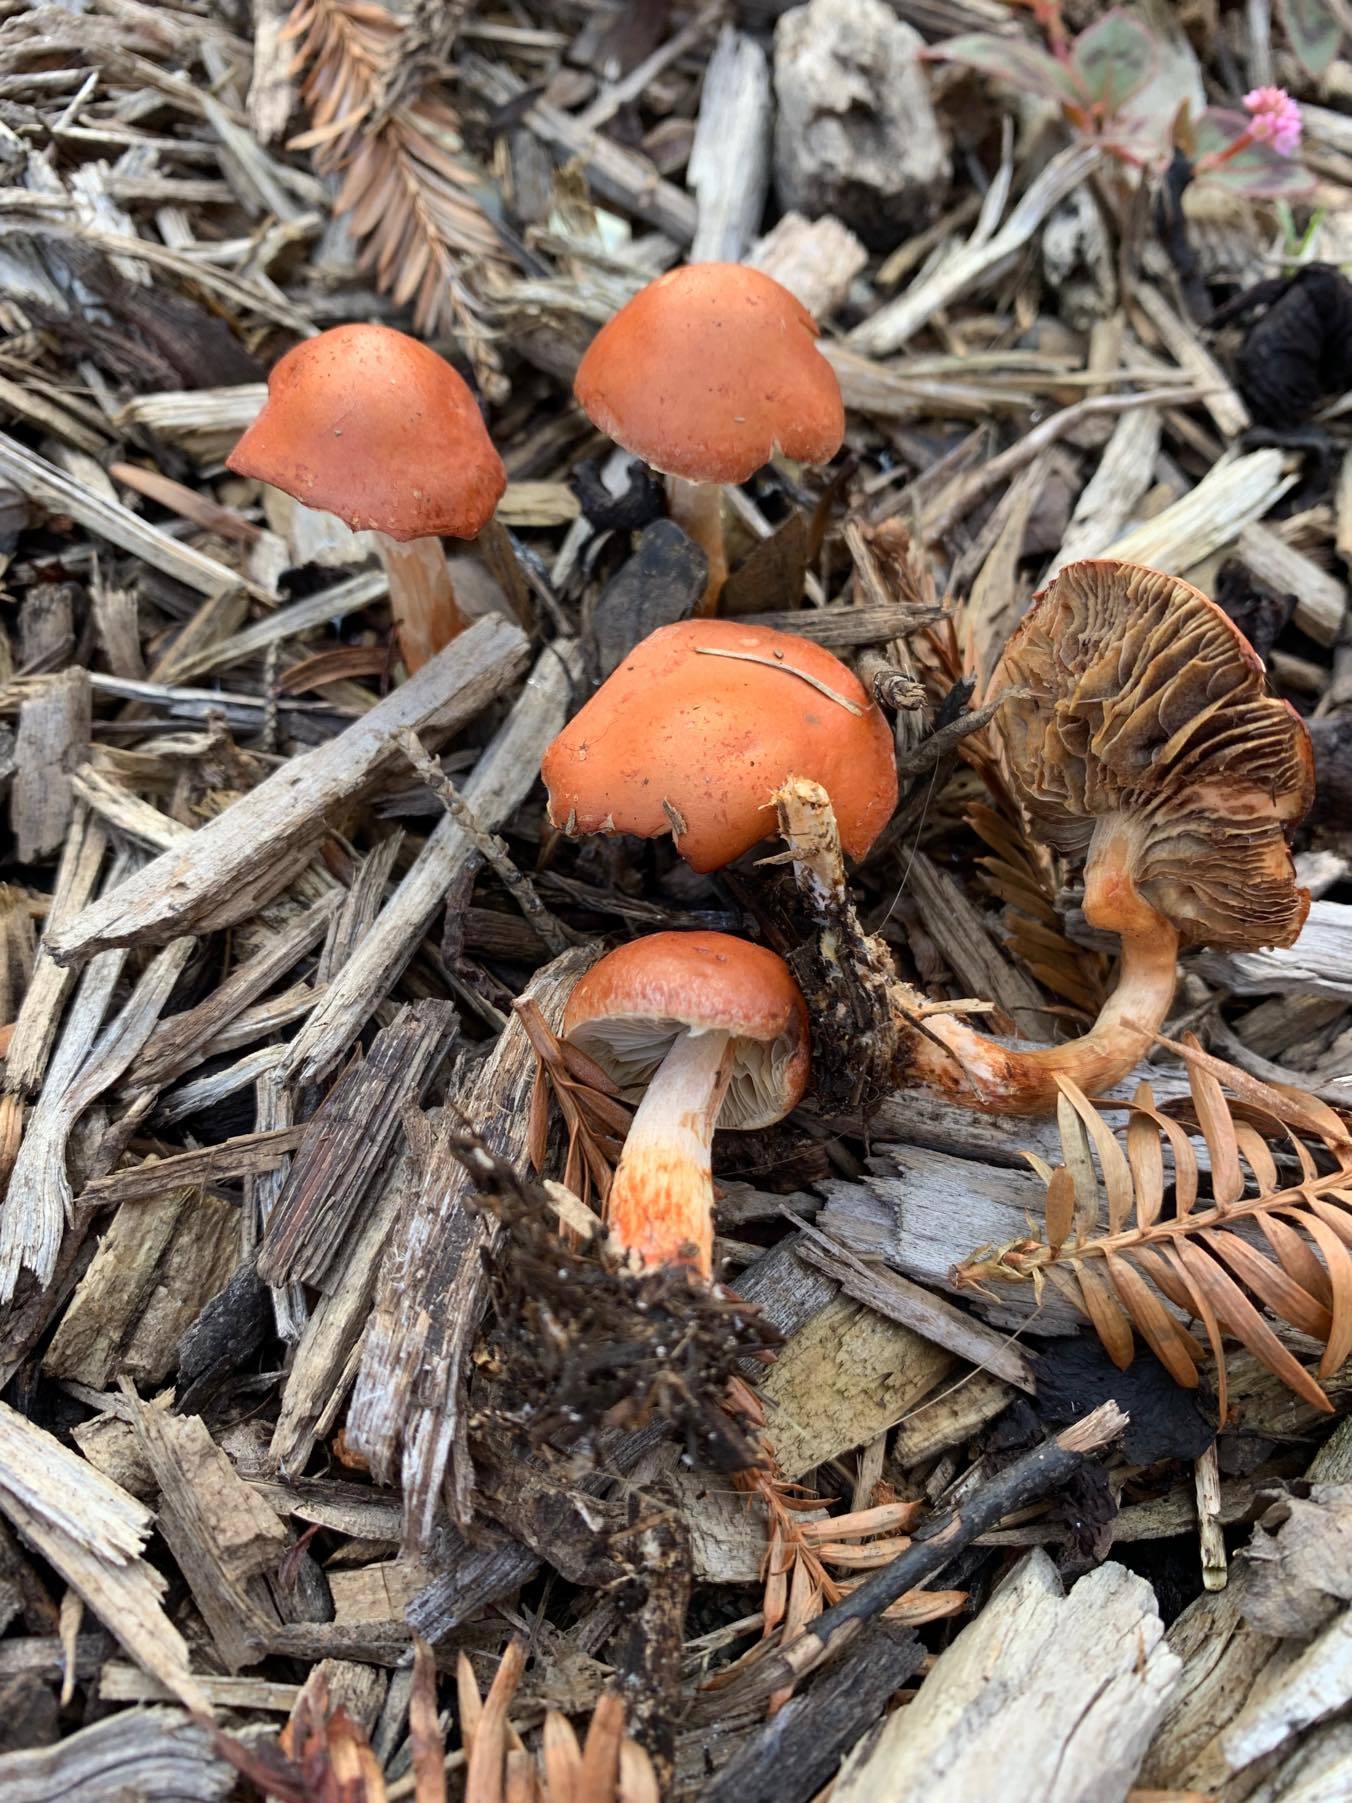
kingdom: Fungi
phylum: Basidiomycota
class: Agaricomycetes
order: Agaricales
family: Strophariaceae
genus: Leratiomyces
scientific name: Leratiomyces ceres
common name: Redlead roundhead
